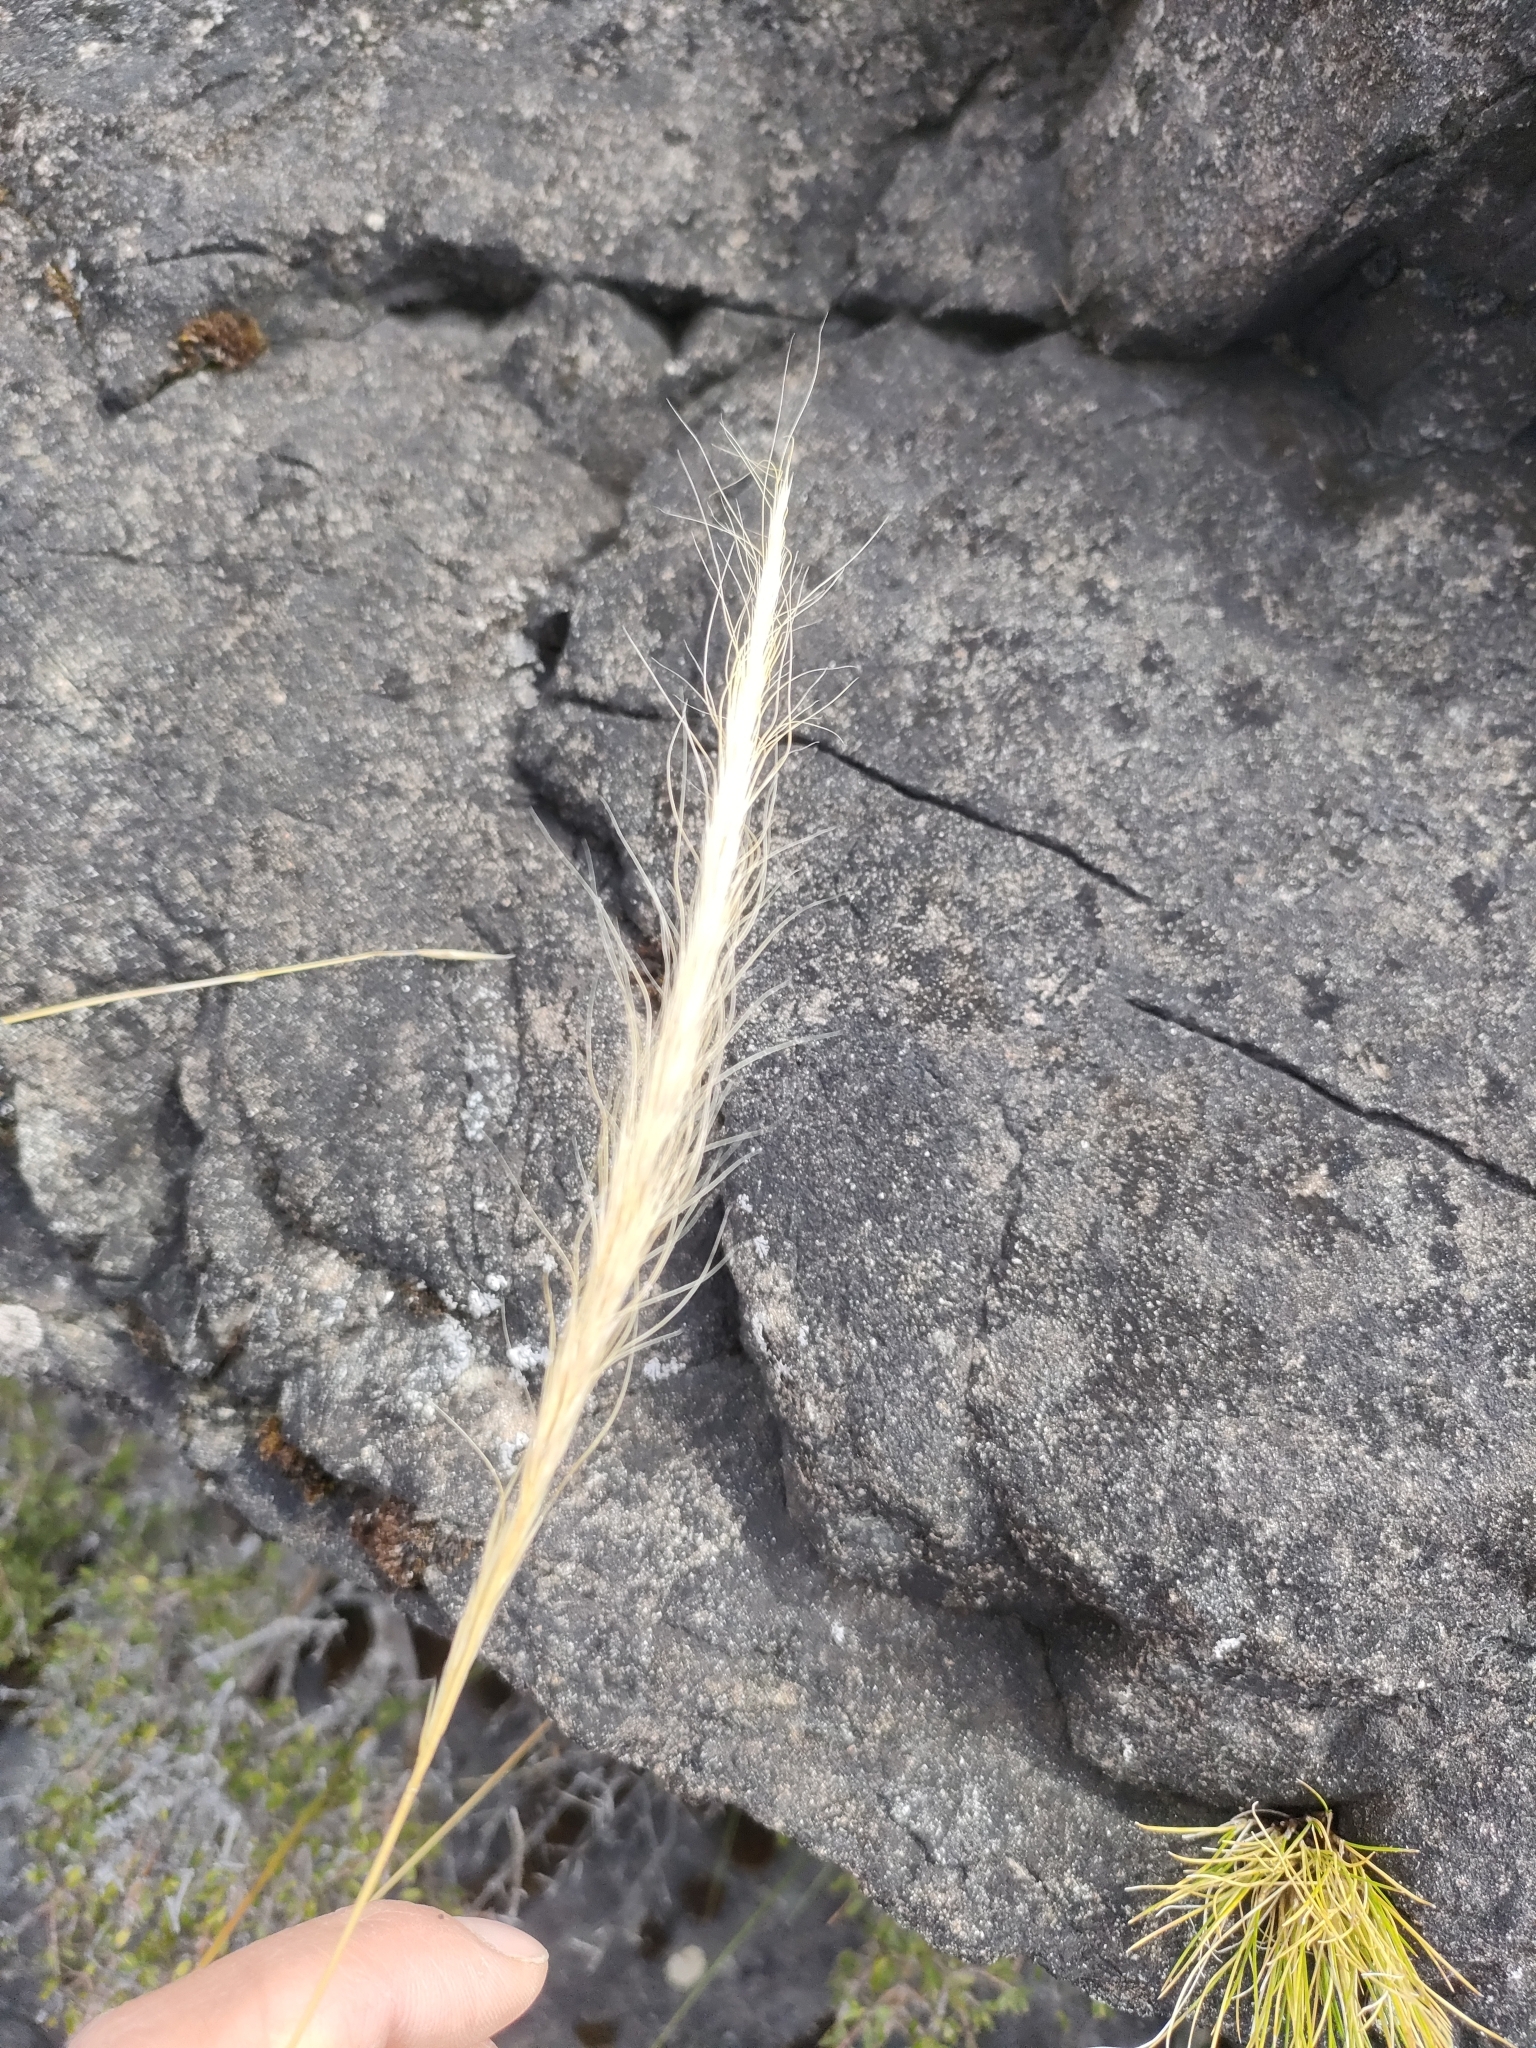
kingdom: Plantae
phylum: Tracheophyta
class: Liliopsida
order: Poales
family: Poaceae
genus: Dichelachne
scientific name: Dichelachne crinita
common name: Clovenfoot plumegrass
